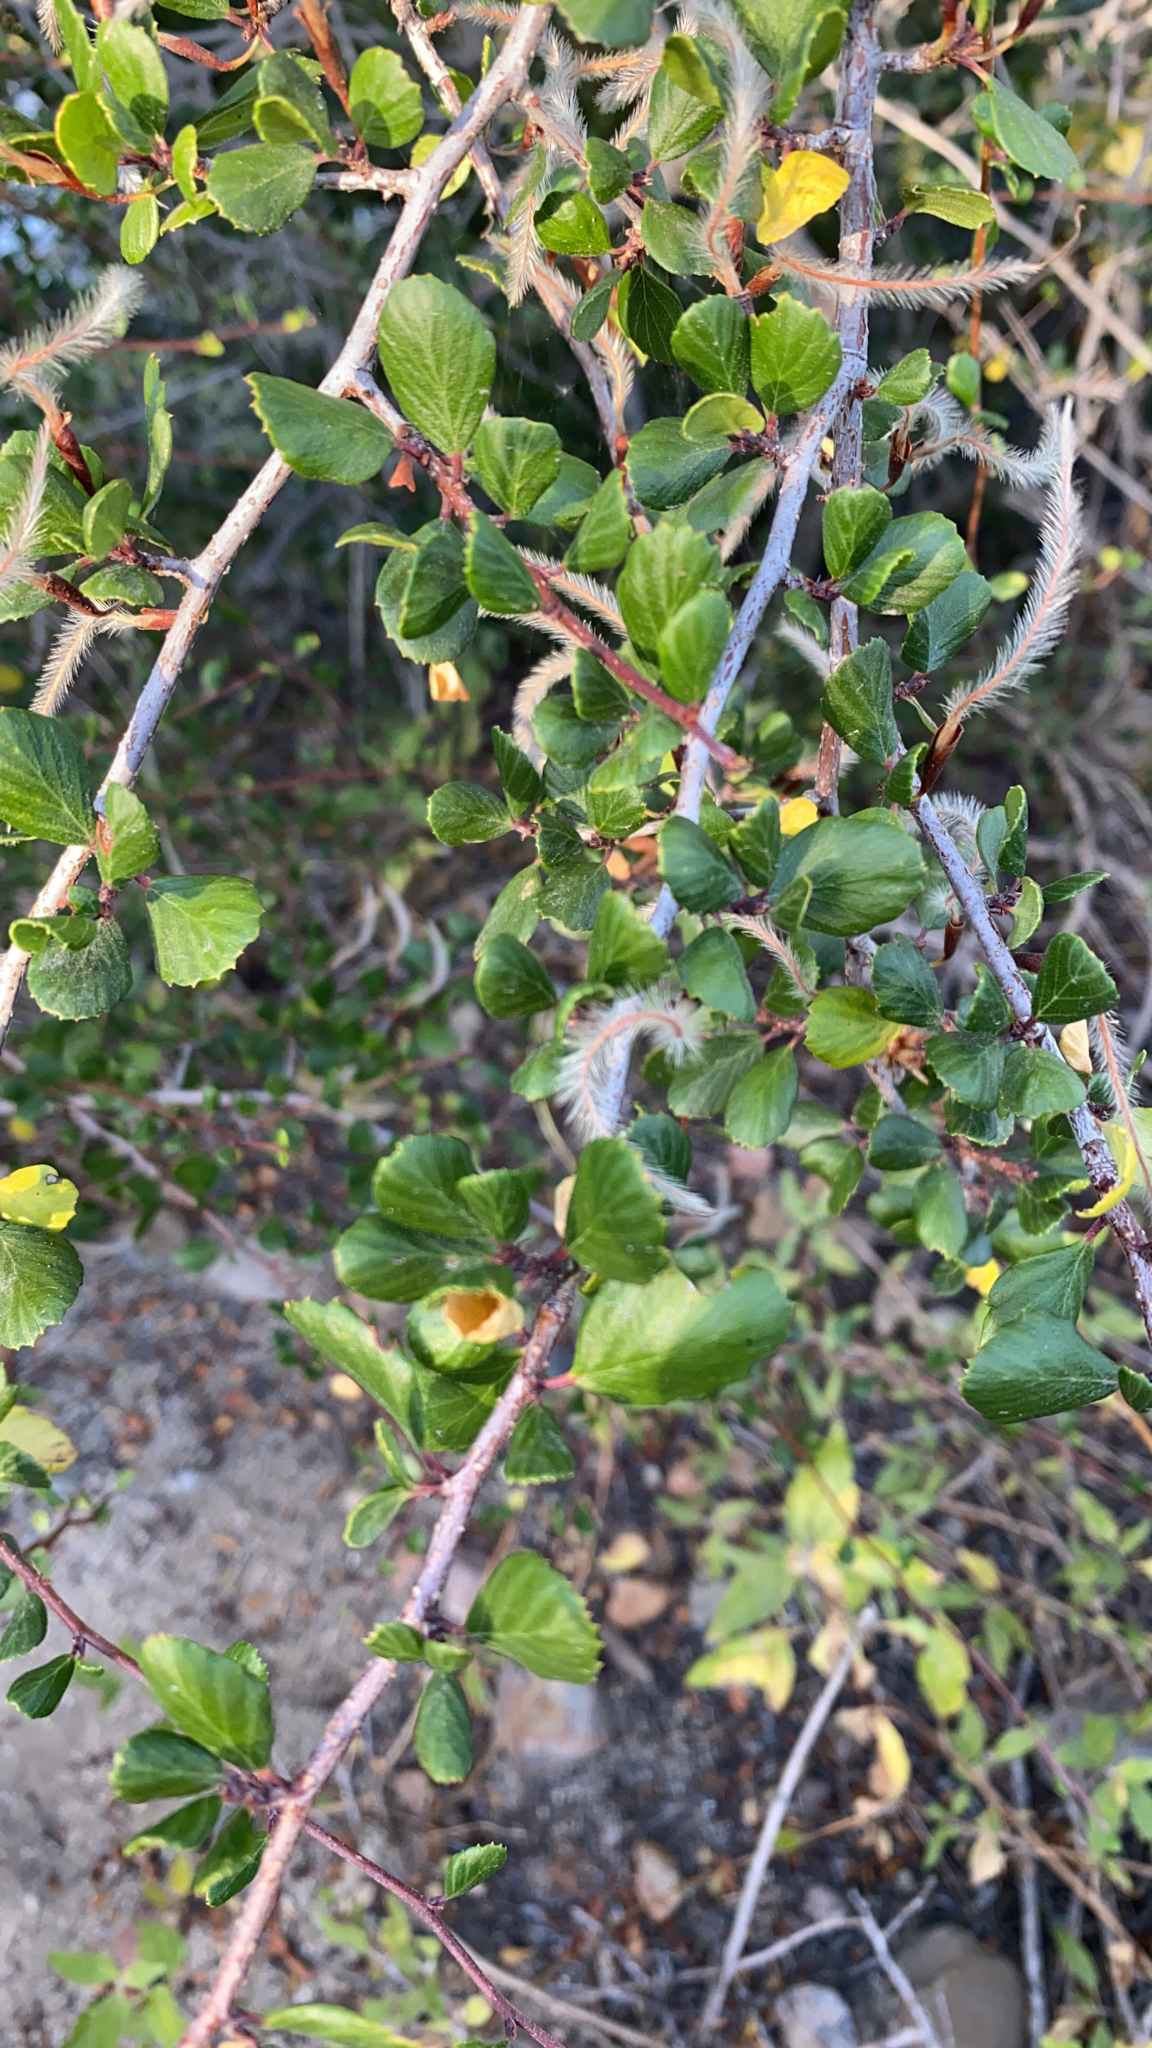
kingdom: Plantae
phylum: Tracheophyta
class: Magnoliopsida
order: Rosales
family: Rosaceae
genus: Cercocarpus
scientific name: Cercocarpus montanus
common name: Alder-leaf cercocarpus
